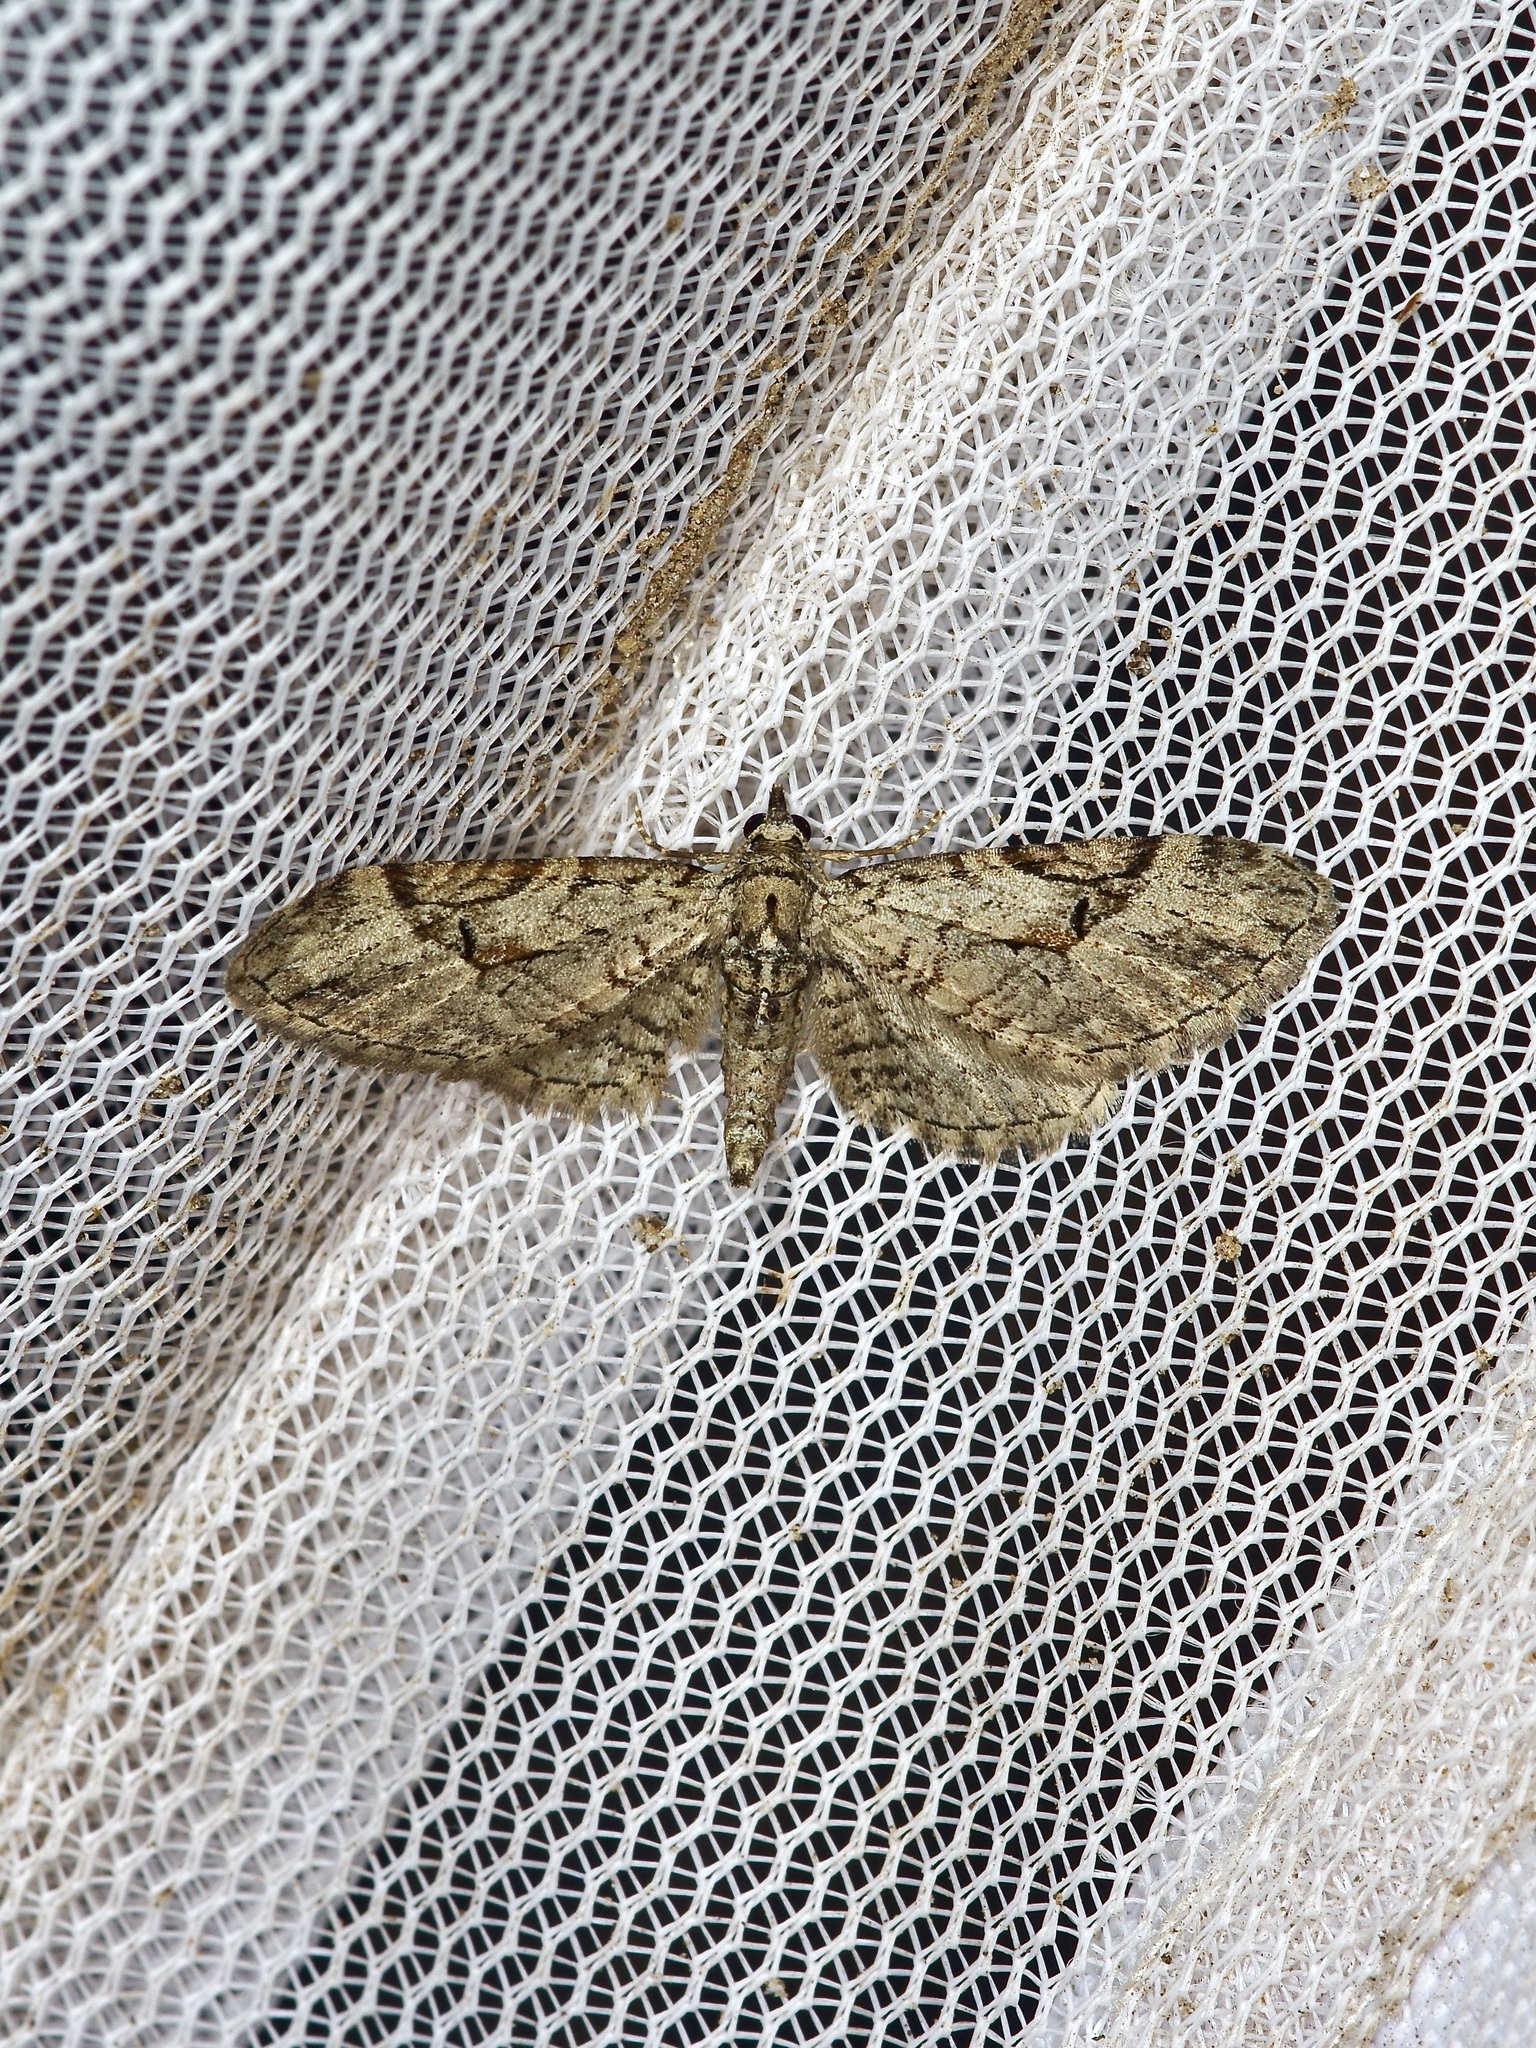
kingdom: Animalia
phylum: Arthropoda
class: Insecta
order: Lepidoptera
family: Geometridae
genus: Eupithecia
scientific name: Eupithecia bolterii
